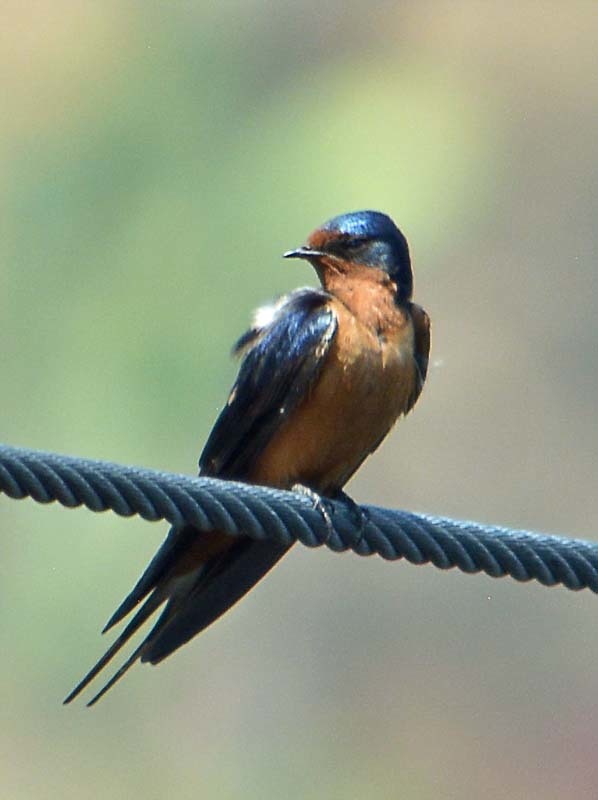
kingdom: Animalia
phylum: Chordata
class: Aves
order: Passeriformes
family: Hirundinidae
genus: Hirundo
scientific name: Hirundo rustica
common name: Barn swallow
